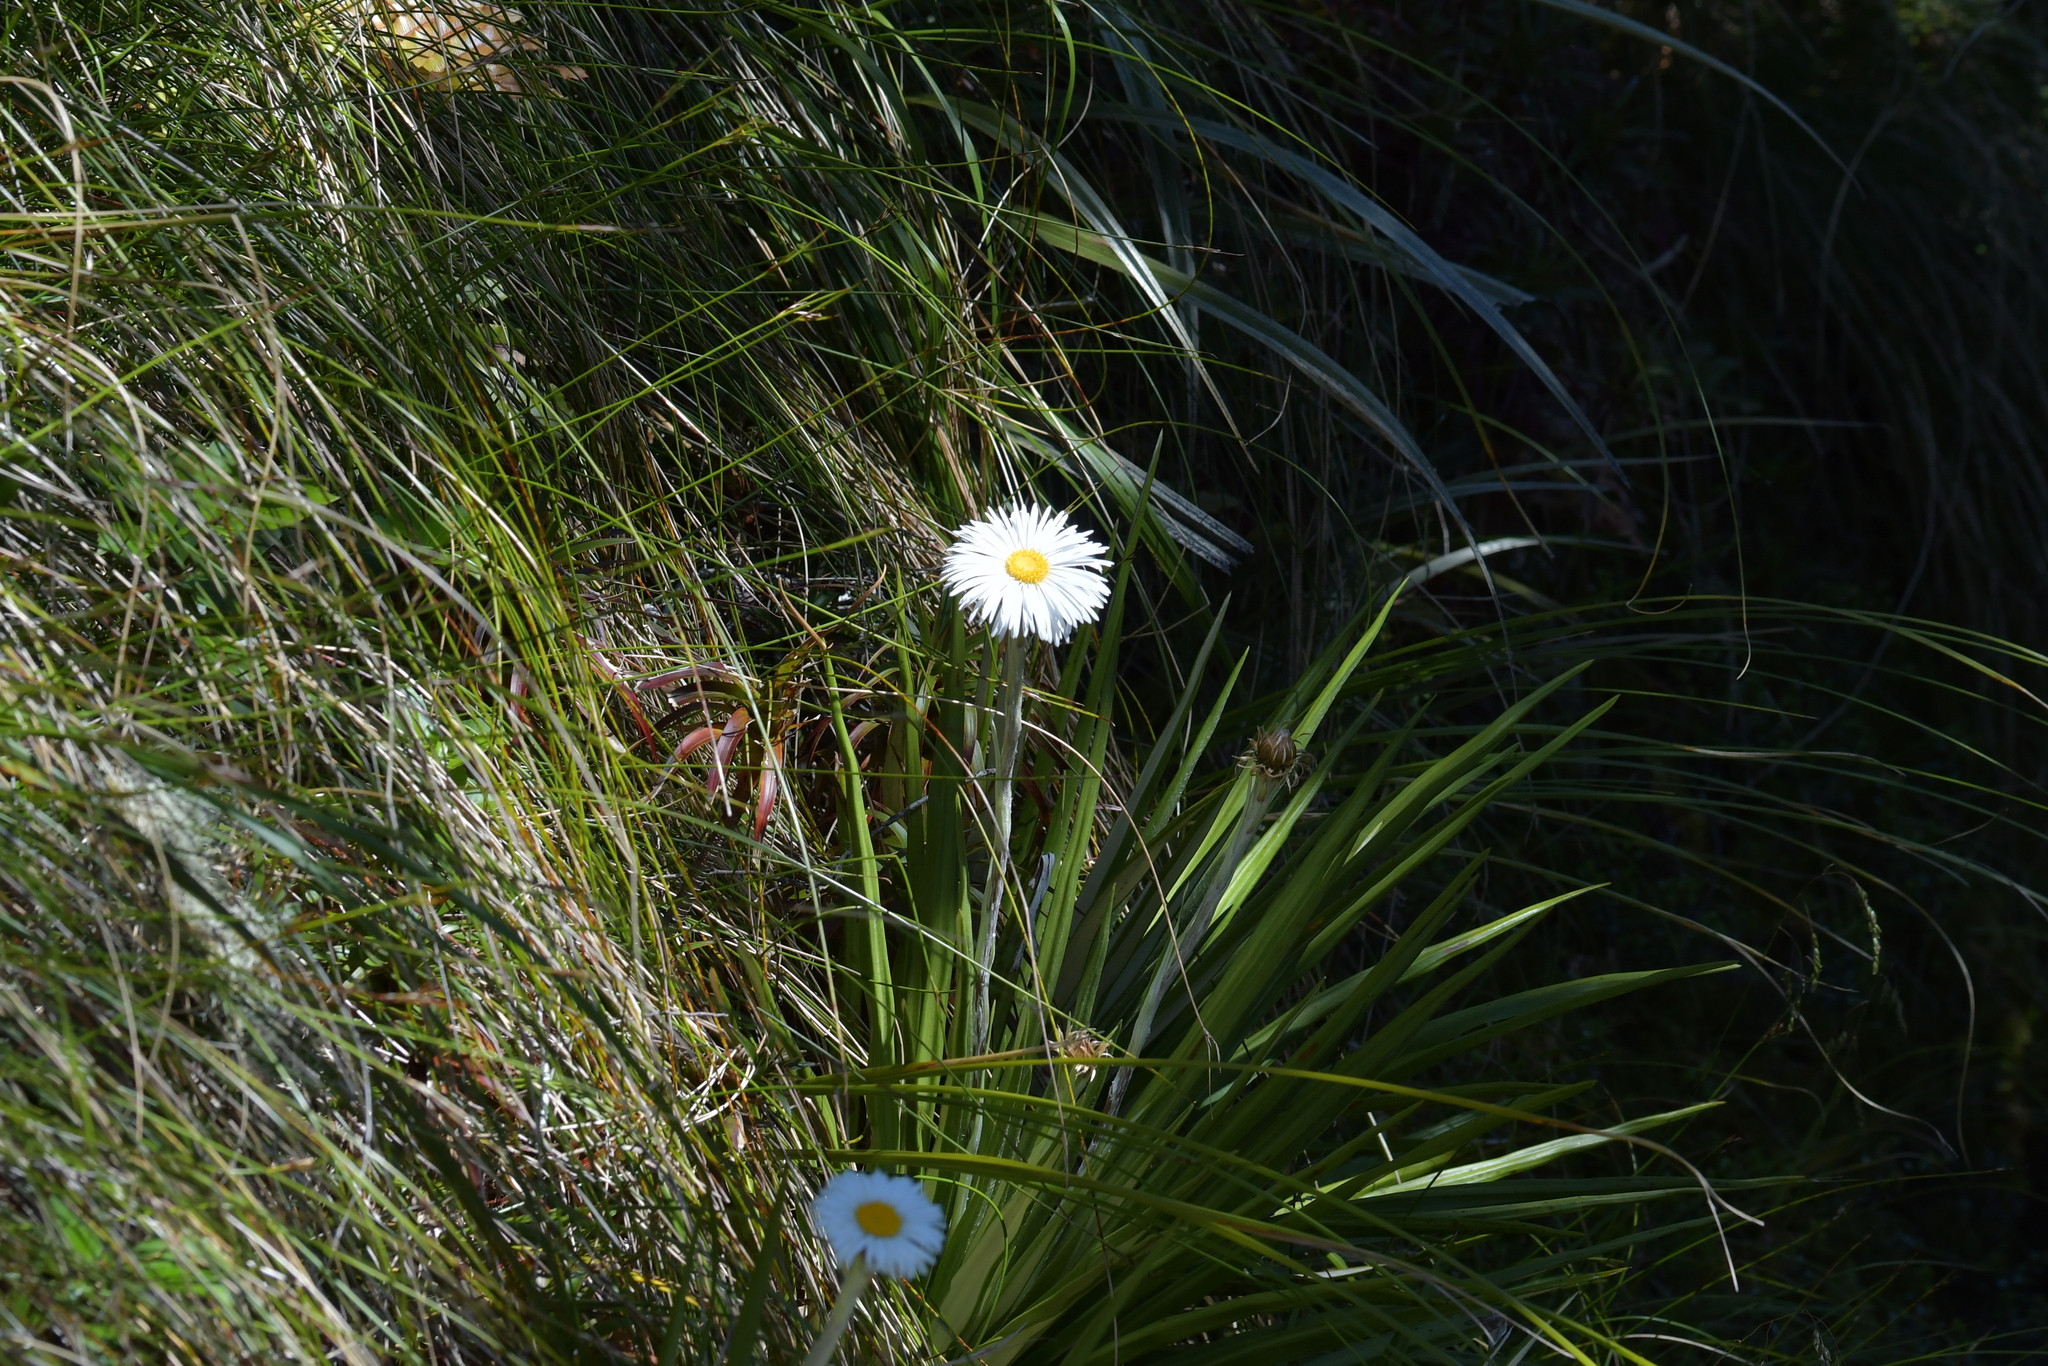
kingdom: Plantae
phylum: Tracheophyta
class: Magnoliopsida
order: Asterales
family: Asteraceae
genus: Celmisia
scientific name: Celmisia petriei
